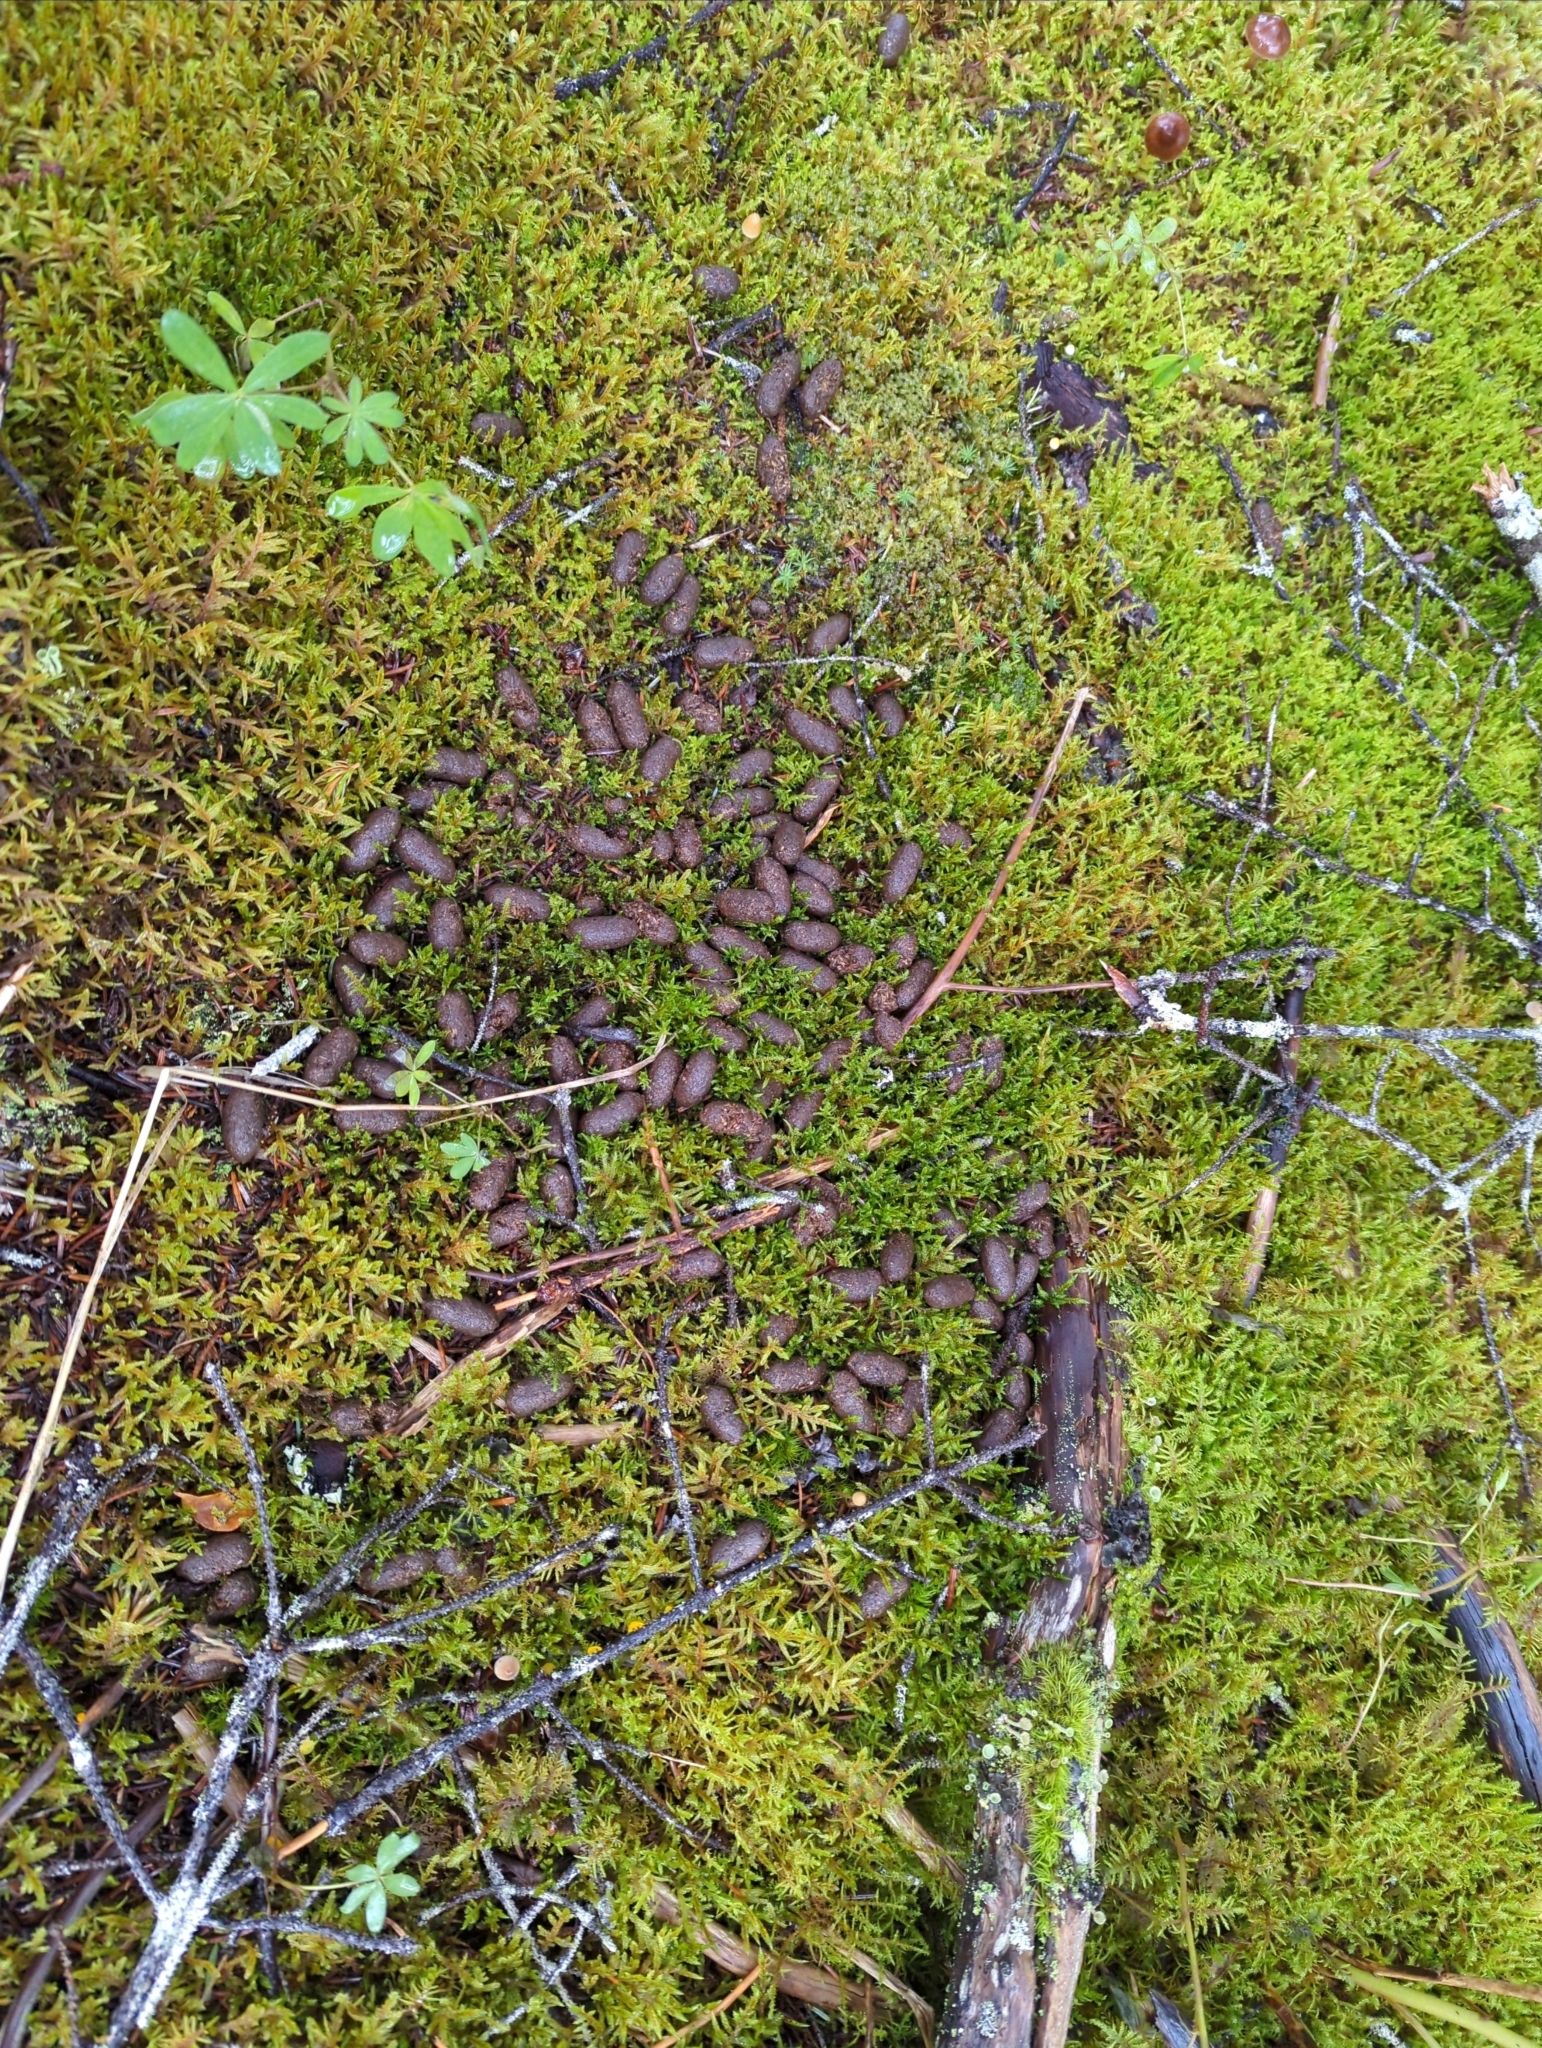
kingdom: Animalia
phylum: Chordata
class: Mammalia
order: Artiodactyla
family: Cervidae
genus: Alces
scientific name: Alces alces
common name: Moose
